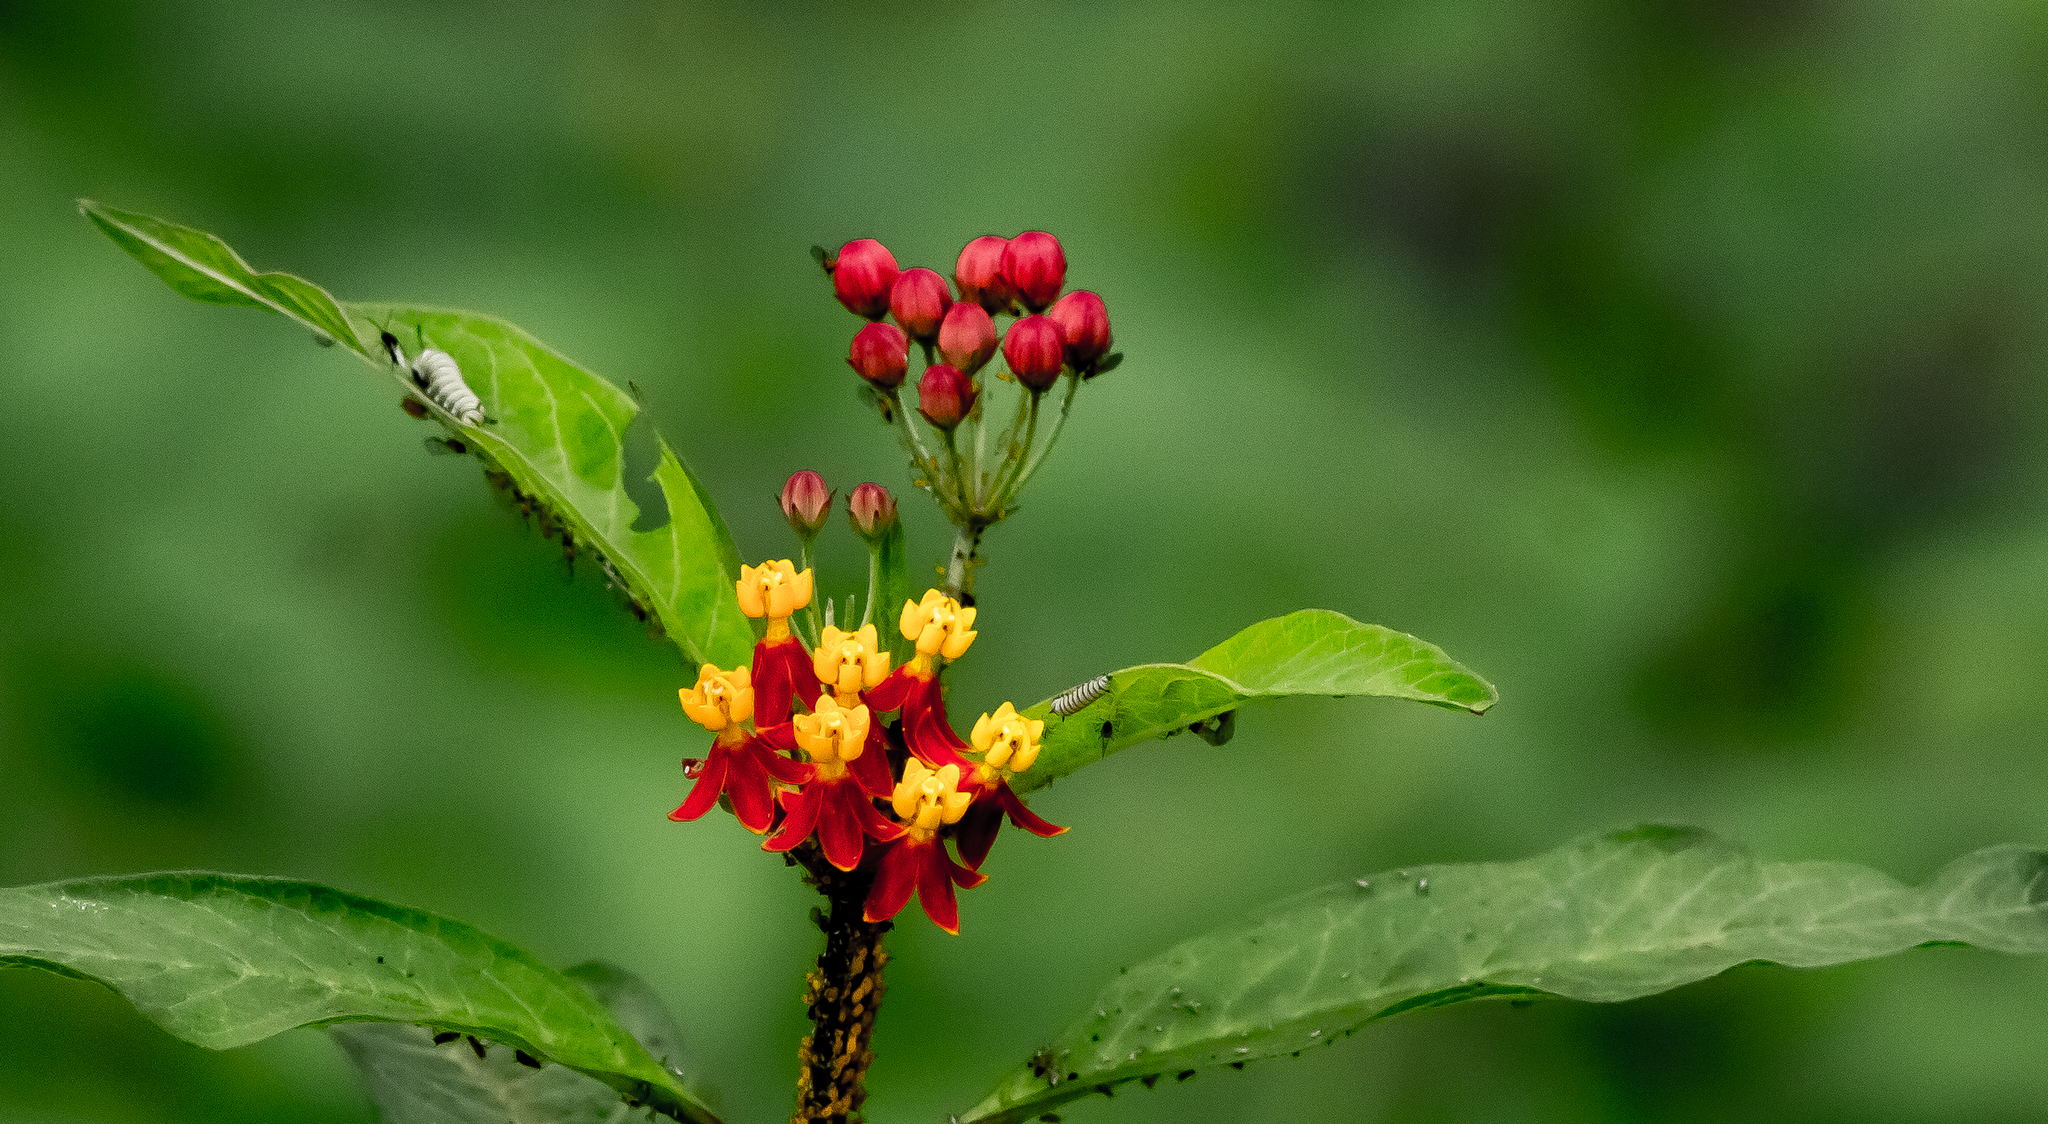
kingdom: Plantae
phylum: Tracheophyta
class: Magnoliopsida
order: Gentianales
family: Apocynaceae
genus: Asclepias
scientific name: Asclepias curassavica
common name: Bloodflower
